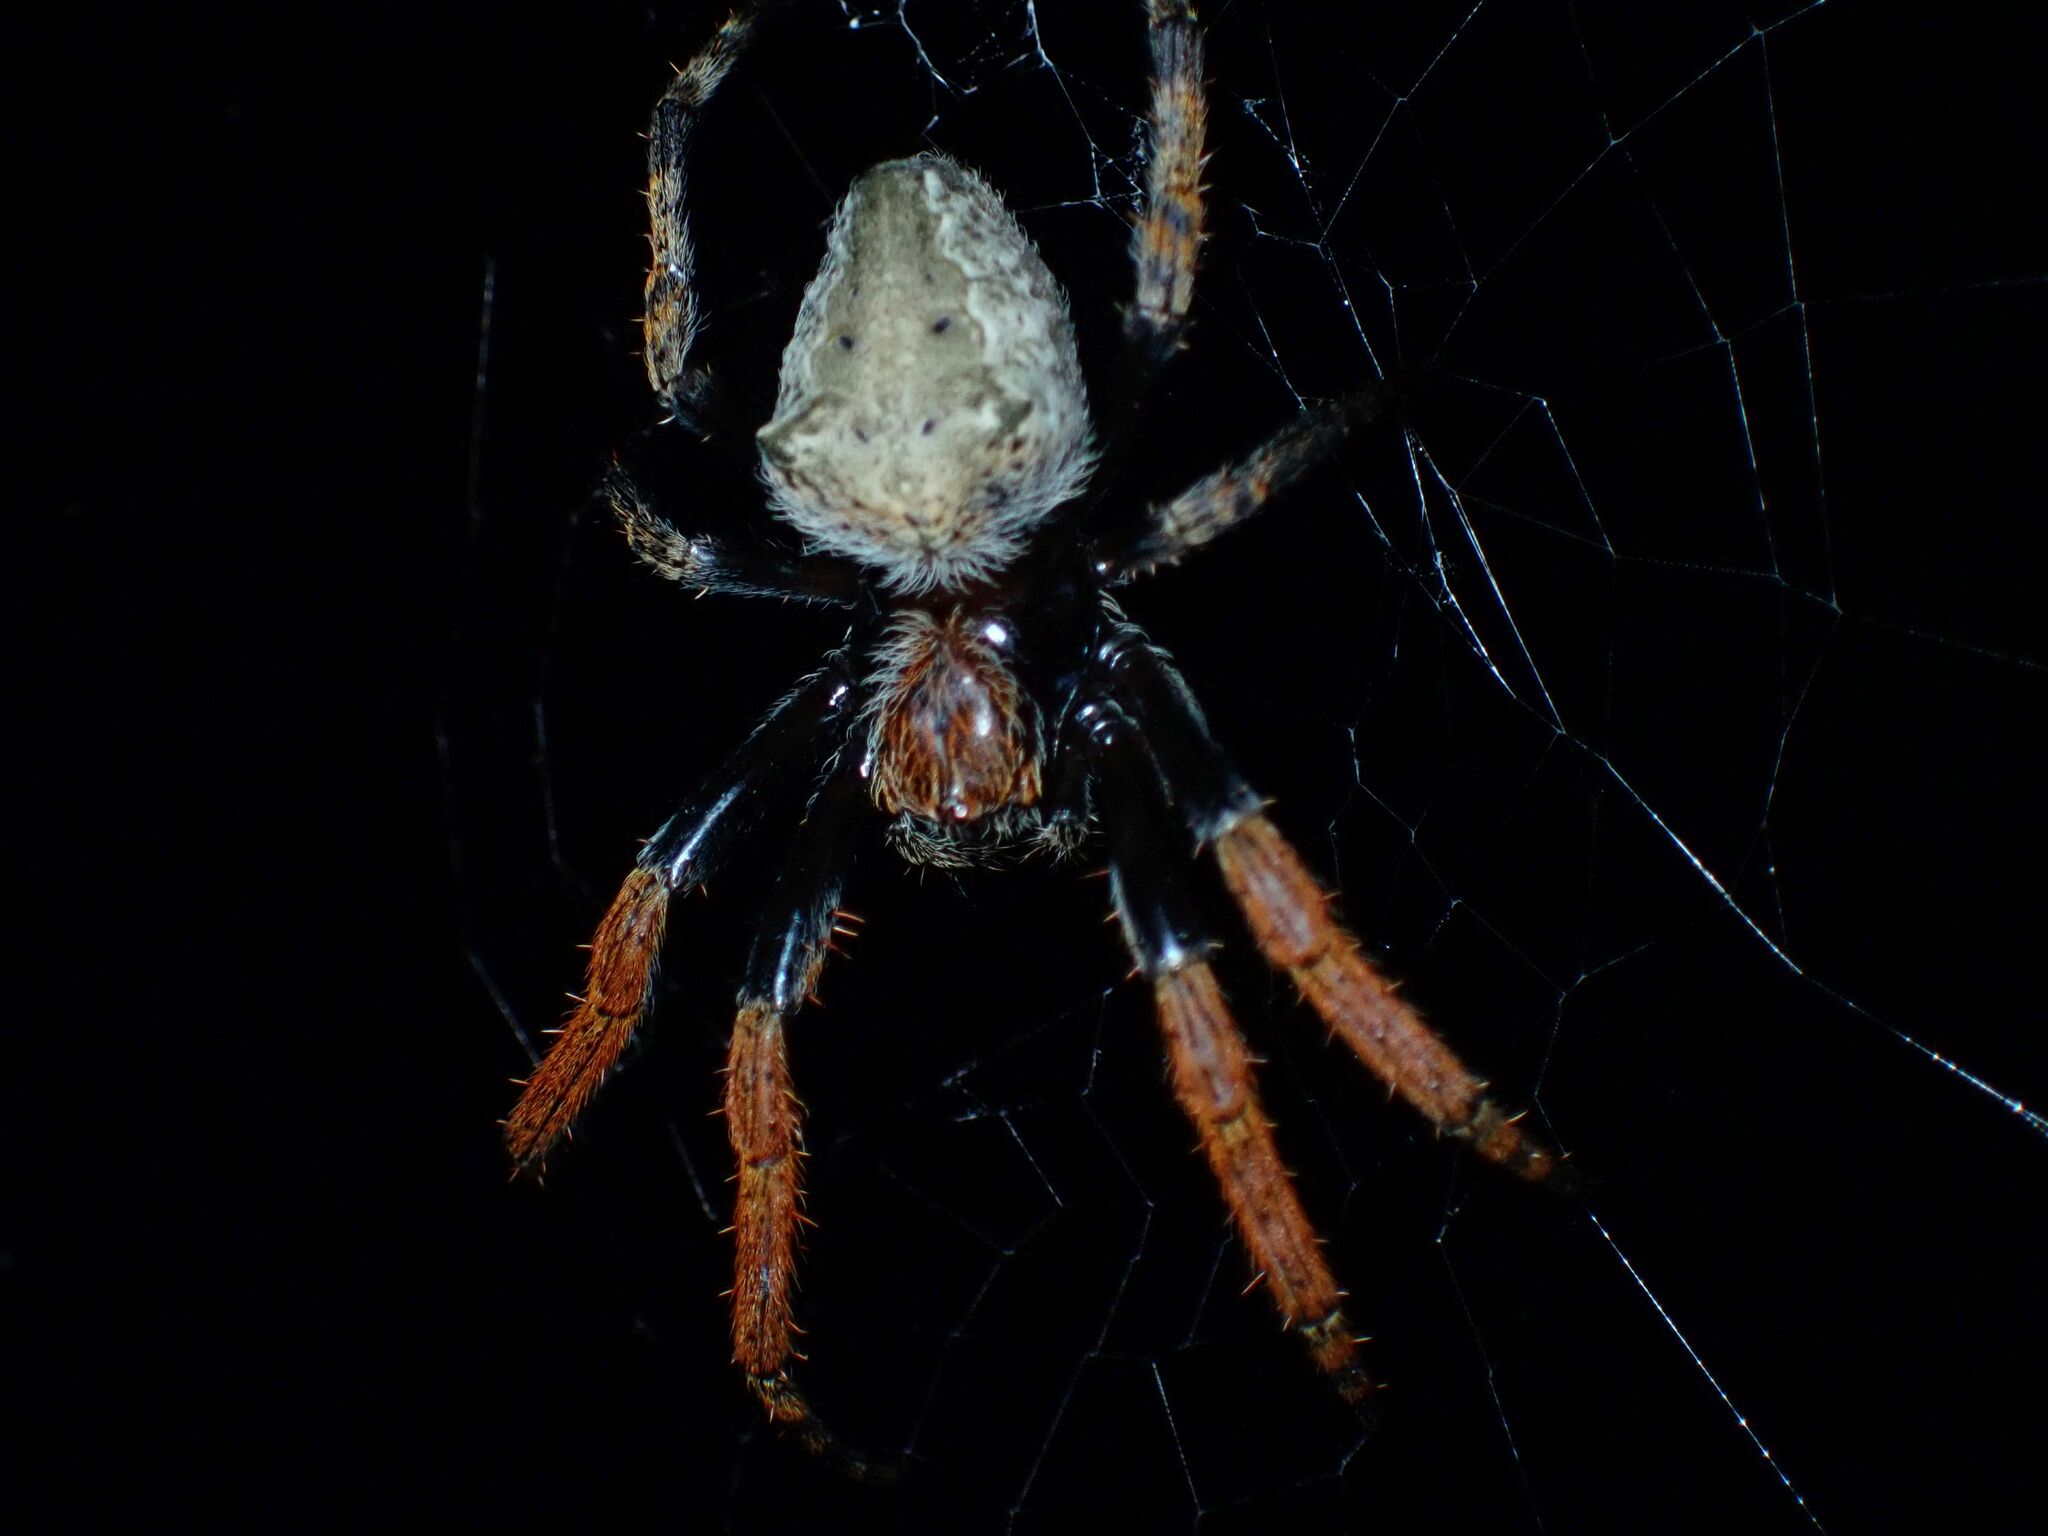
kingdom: Animalia
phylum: Arthropoda
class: Arachnida
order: Araneae
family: Araneidae
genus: Hortophora
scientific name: Hortophora capitalis
